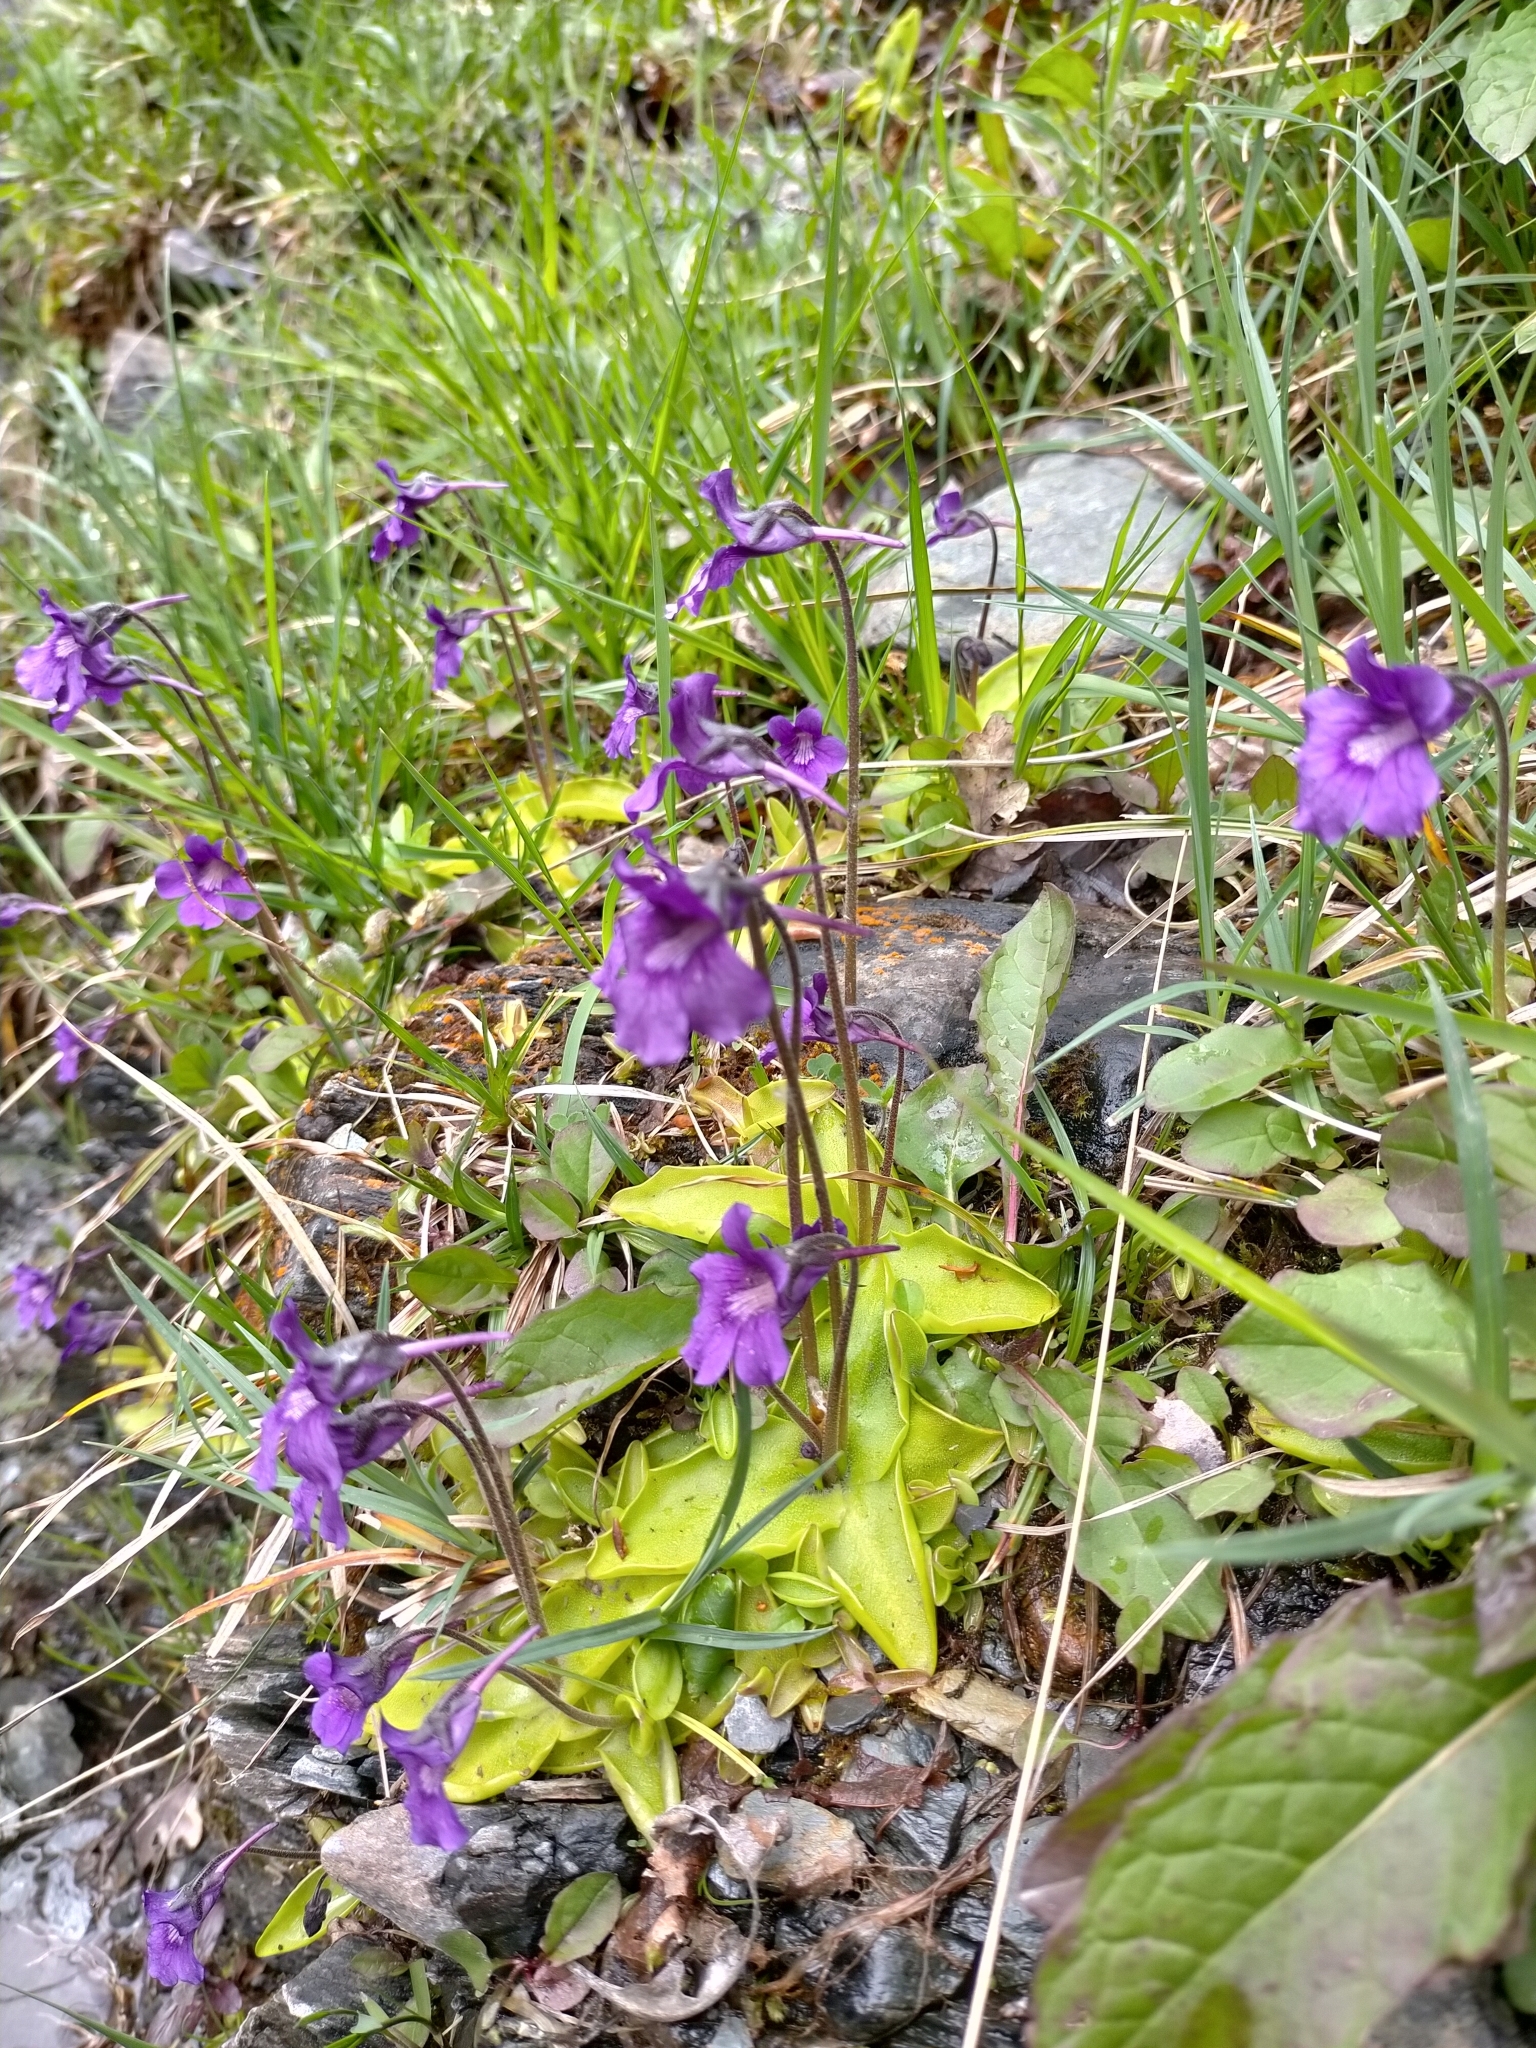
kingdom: Plantae
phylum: Tracheophyta
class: Magnoliopsida
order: Lamiales
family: Lentibulariaceae
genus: Pinguicula
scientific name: Pinguicula grandiflora
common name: Large-flowered butterwort
